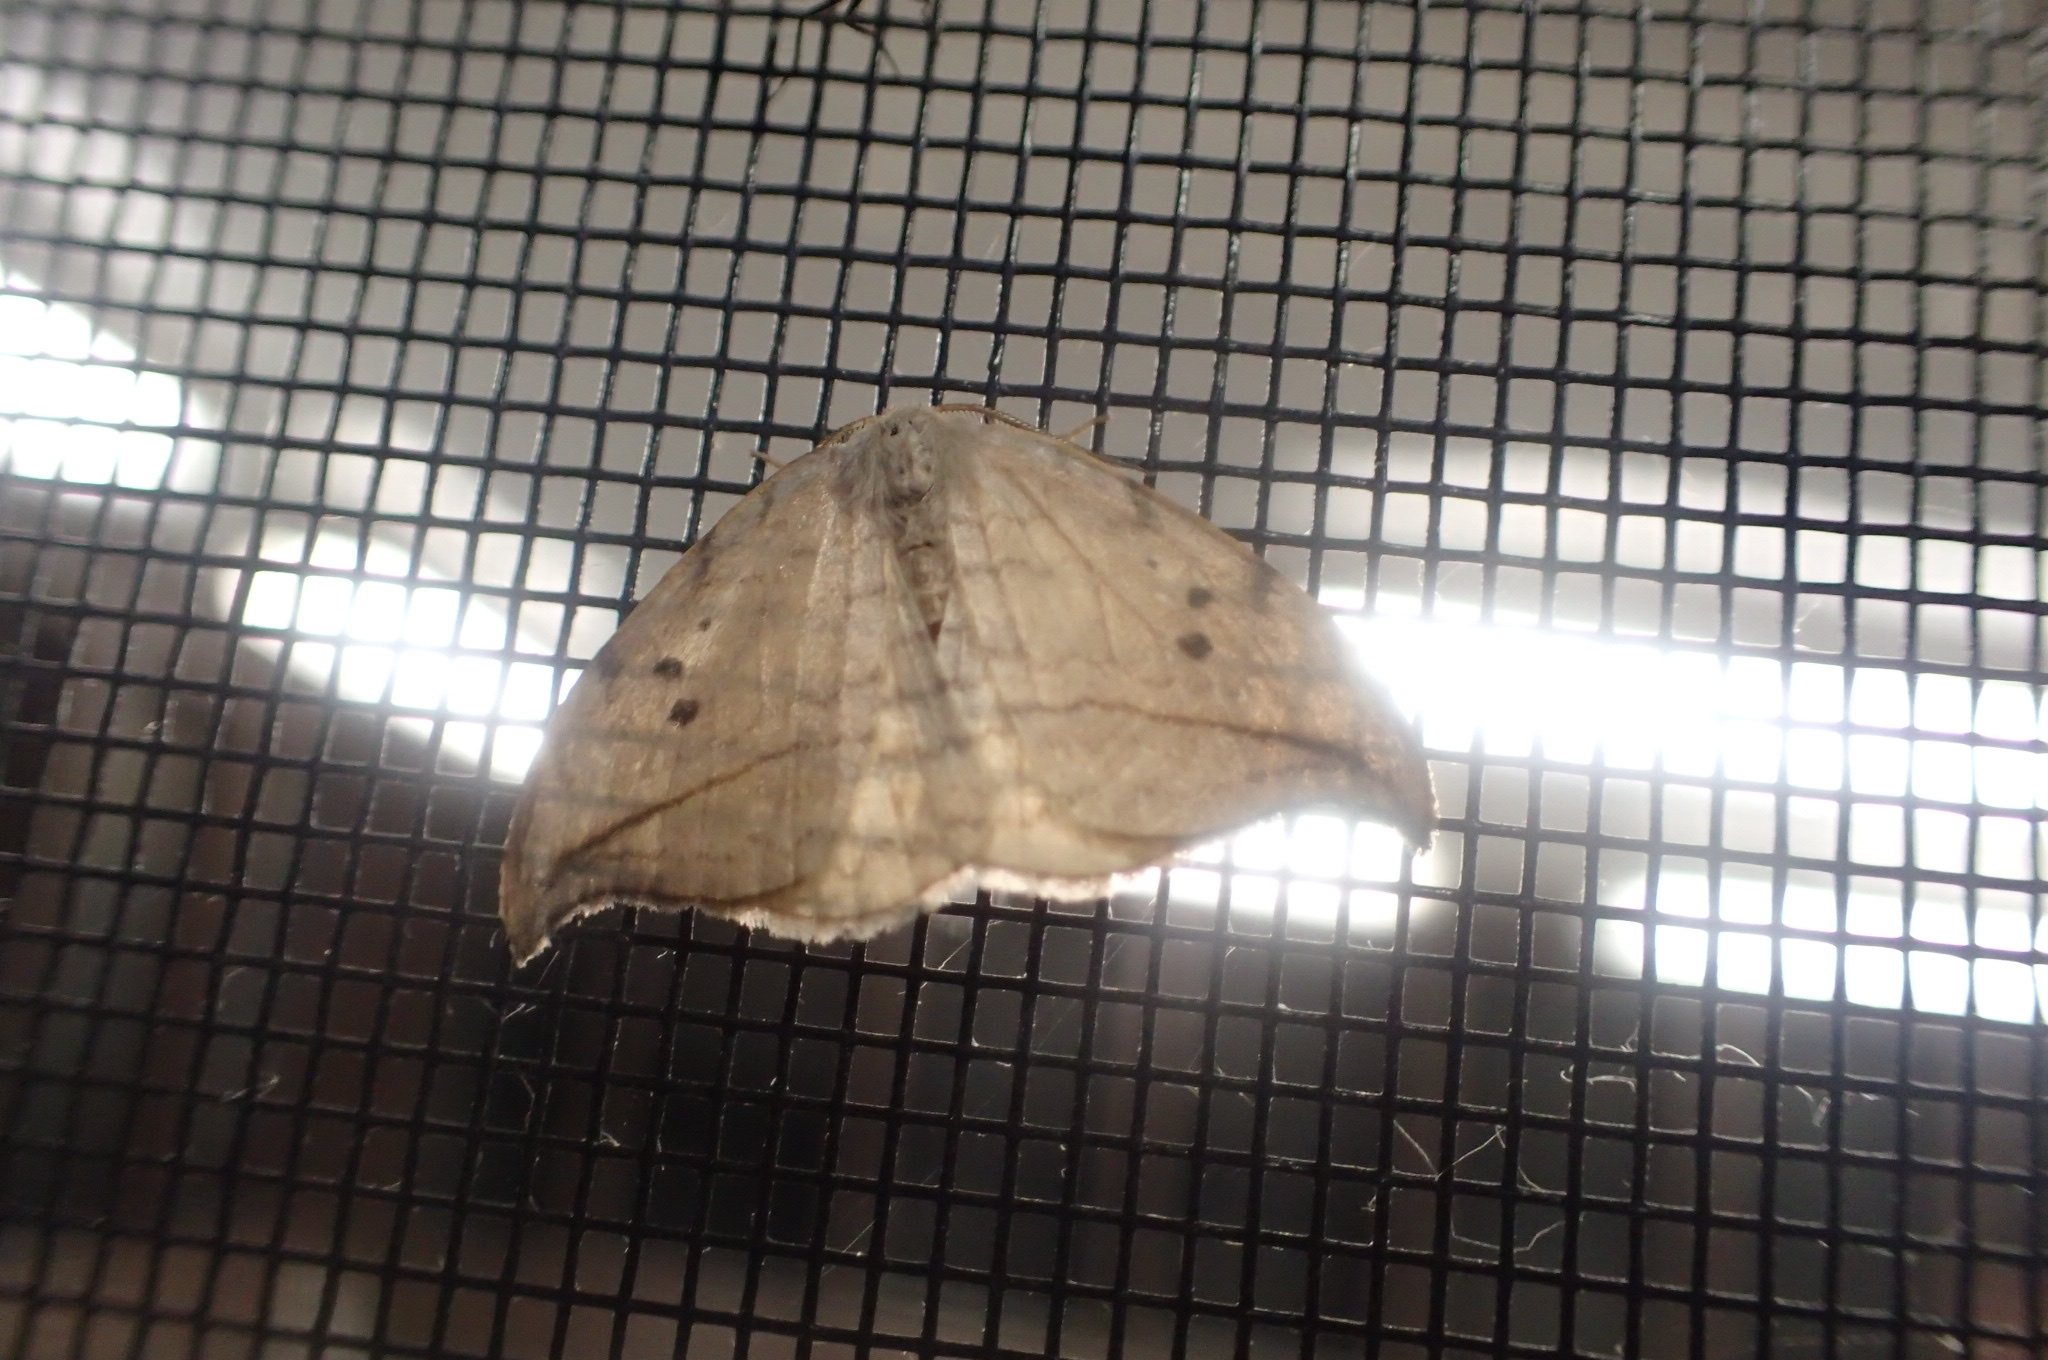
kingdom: Animalia
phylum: Arthropoda
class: Insecta
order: Lepidoptera
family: Drepanidae
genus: Drepana
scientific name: Drepana arcuata
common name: Arched hooktip moth
